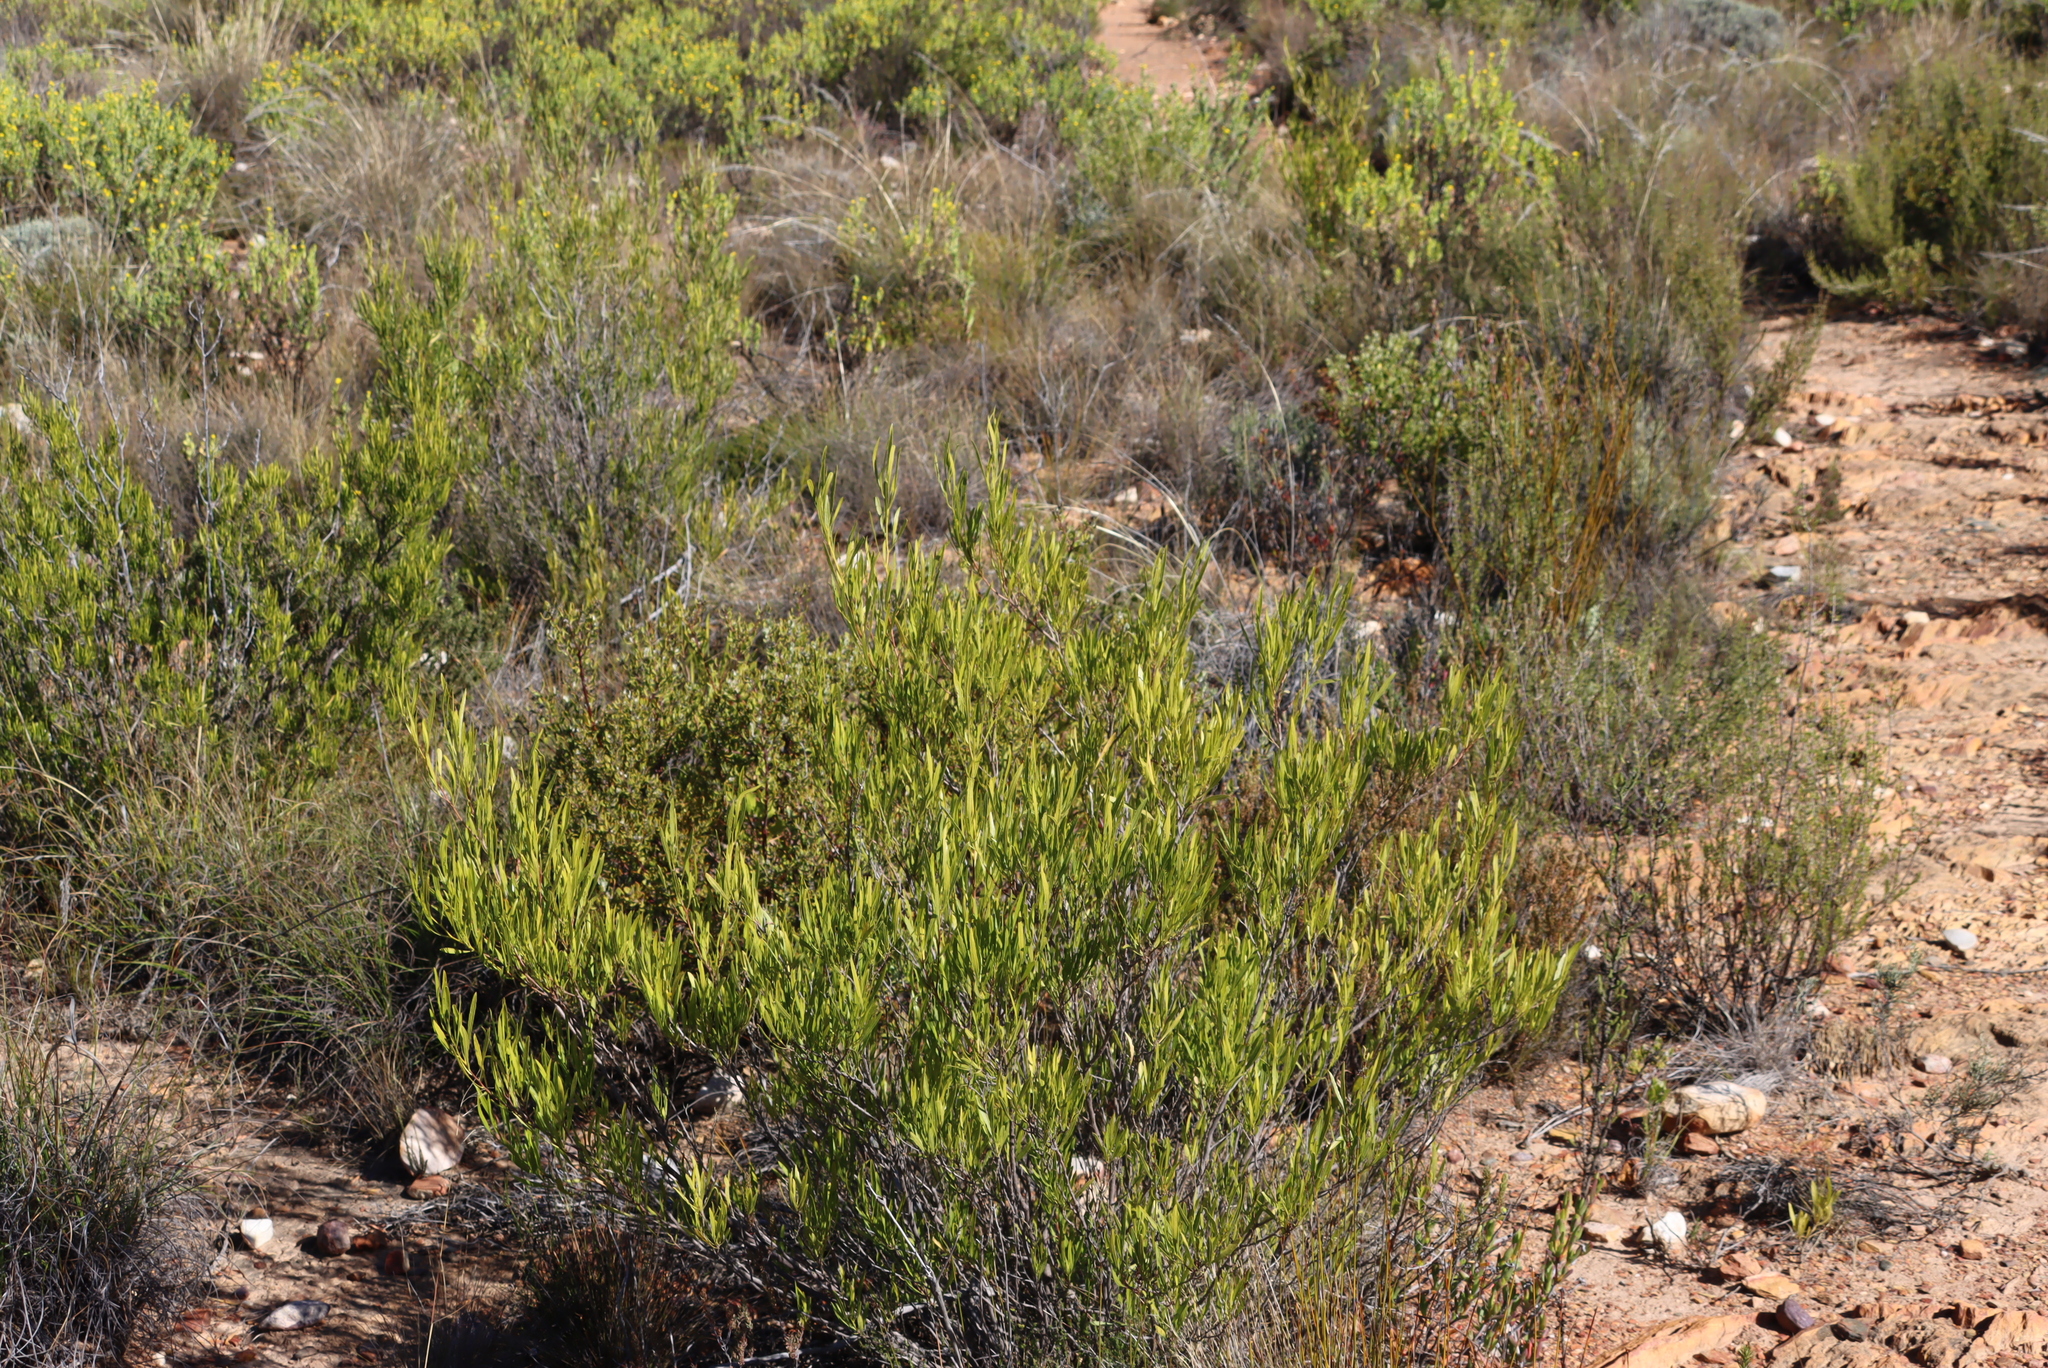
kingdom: Plantae
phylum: Tracheophyta
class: Magnoliopsida
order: Sapindales
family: Sapindaceae
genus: Dodonaea
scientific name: Dodonaea viscosa
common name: Hopbush
